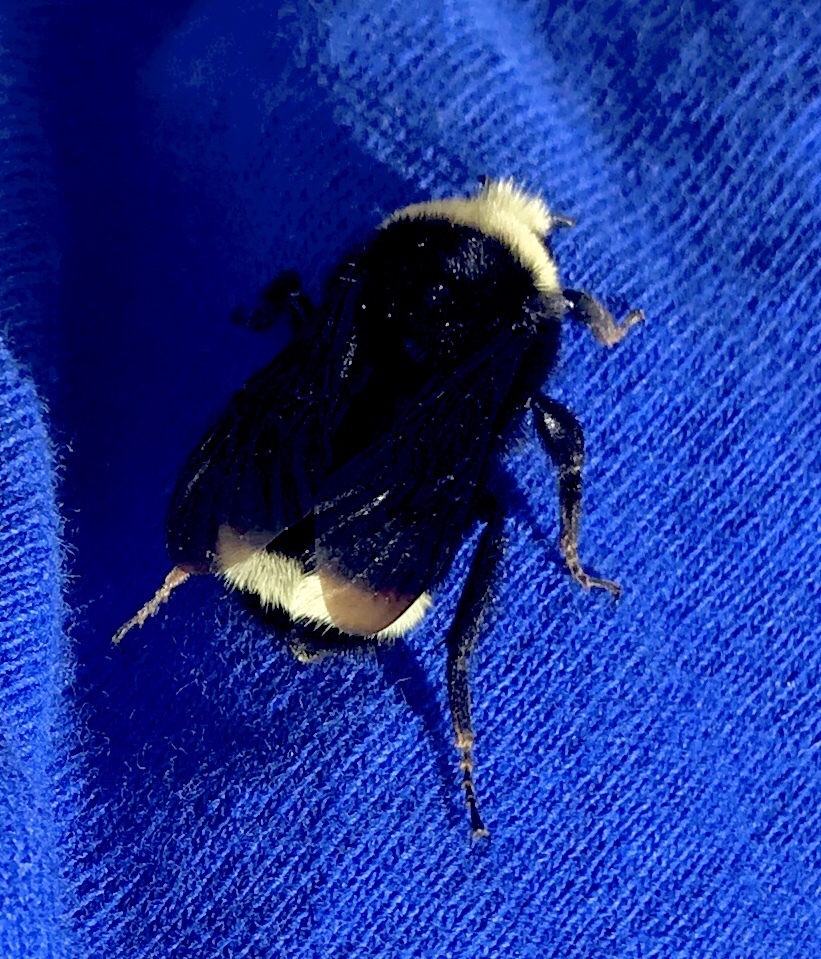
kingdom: Animalia
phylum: Arthropoda
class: Insecta
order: Hymenoptera
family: Apidae
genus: Bombus
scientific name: Bombus vosnesenskii
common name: Vosnesensky bumble bee
